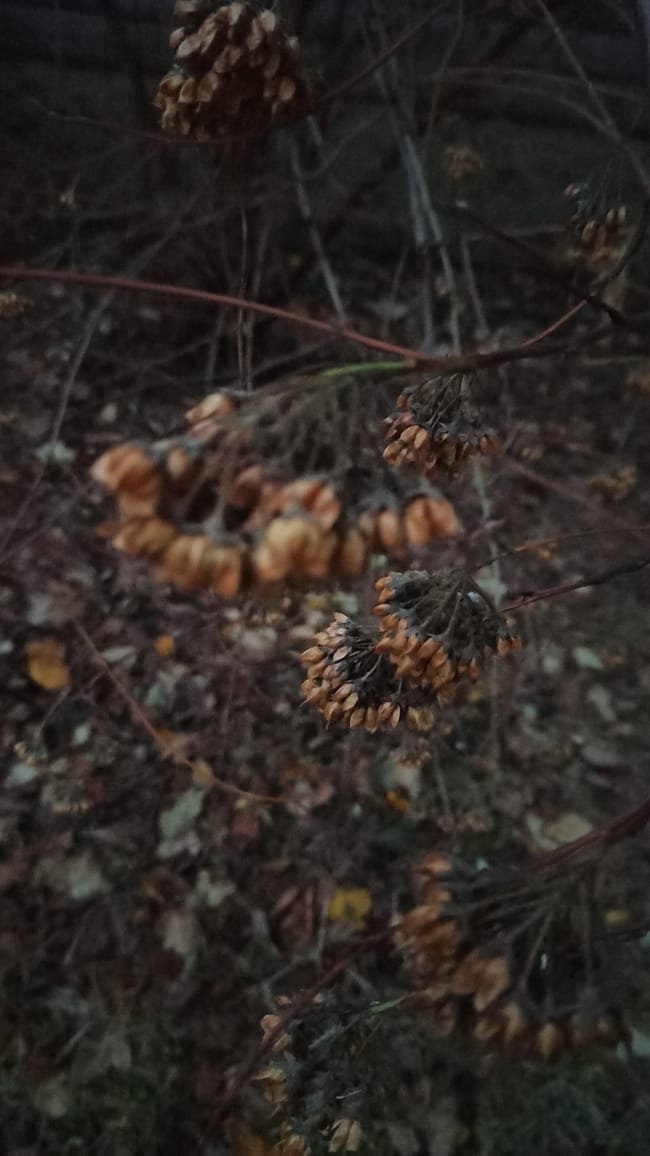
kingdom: Plantae
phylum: Tracheophyta
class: Magnoliopsida
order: Rosales
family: Rosaceae
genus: Physocarpus
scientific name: Physocarpus opulifolius
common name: Ninebark
